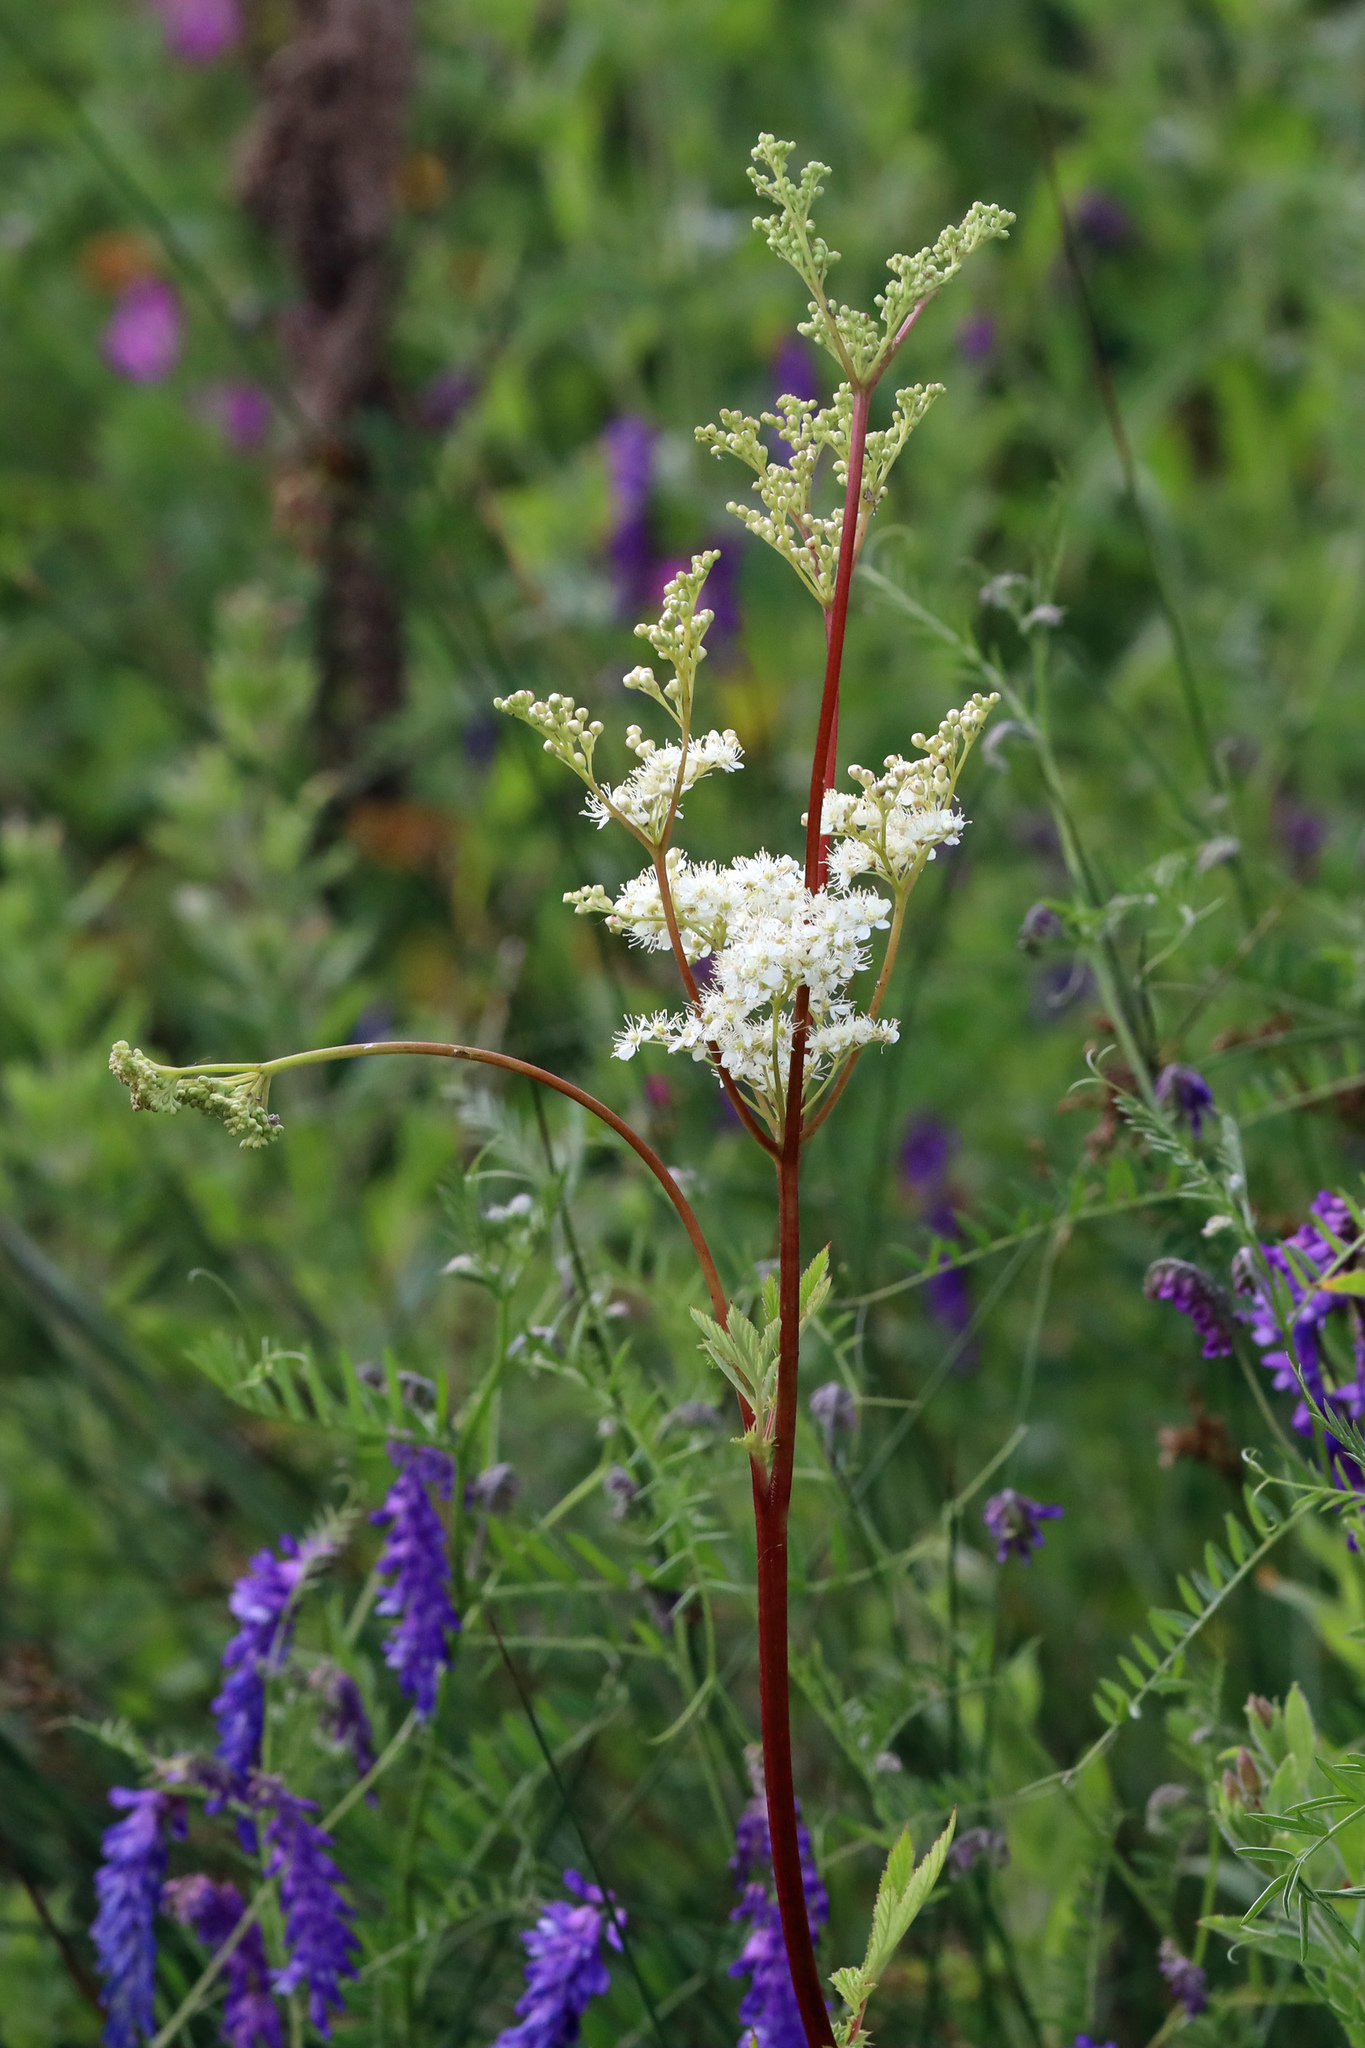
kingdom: Plantae
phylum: Tracheophyta
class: Magnoliopsida
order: Rosales
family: Rosaceae
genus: Filipendula
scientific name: Filipendula ulmaria
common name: Meadowsweet
